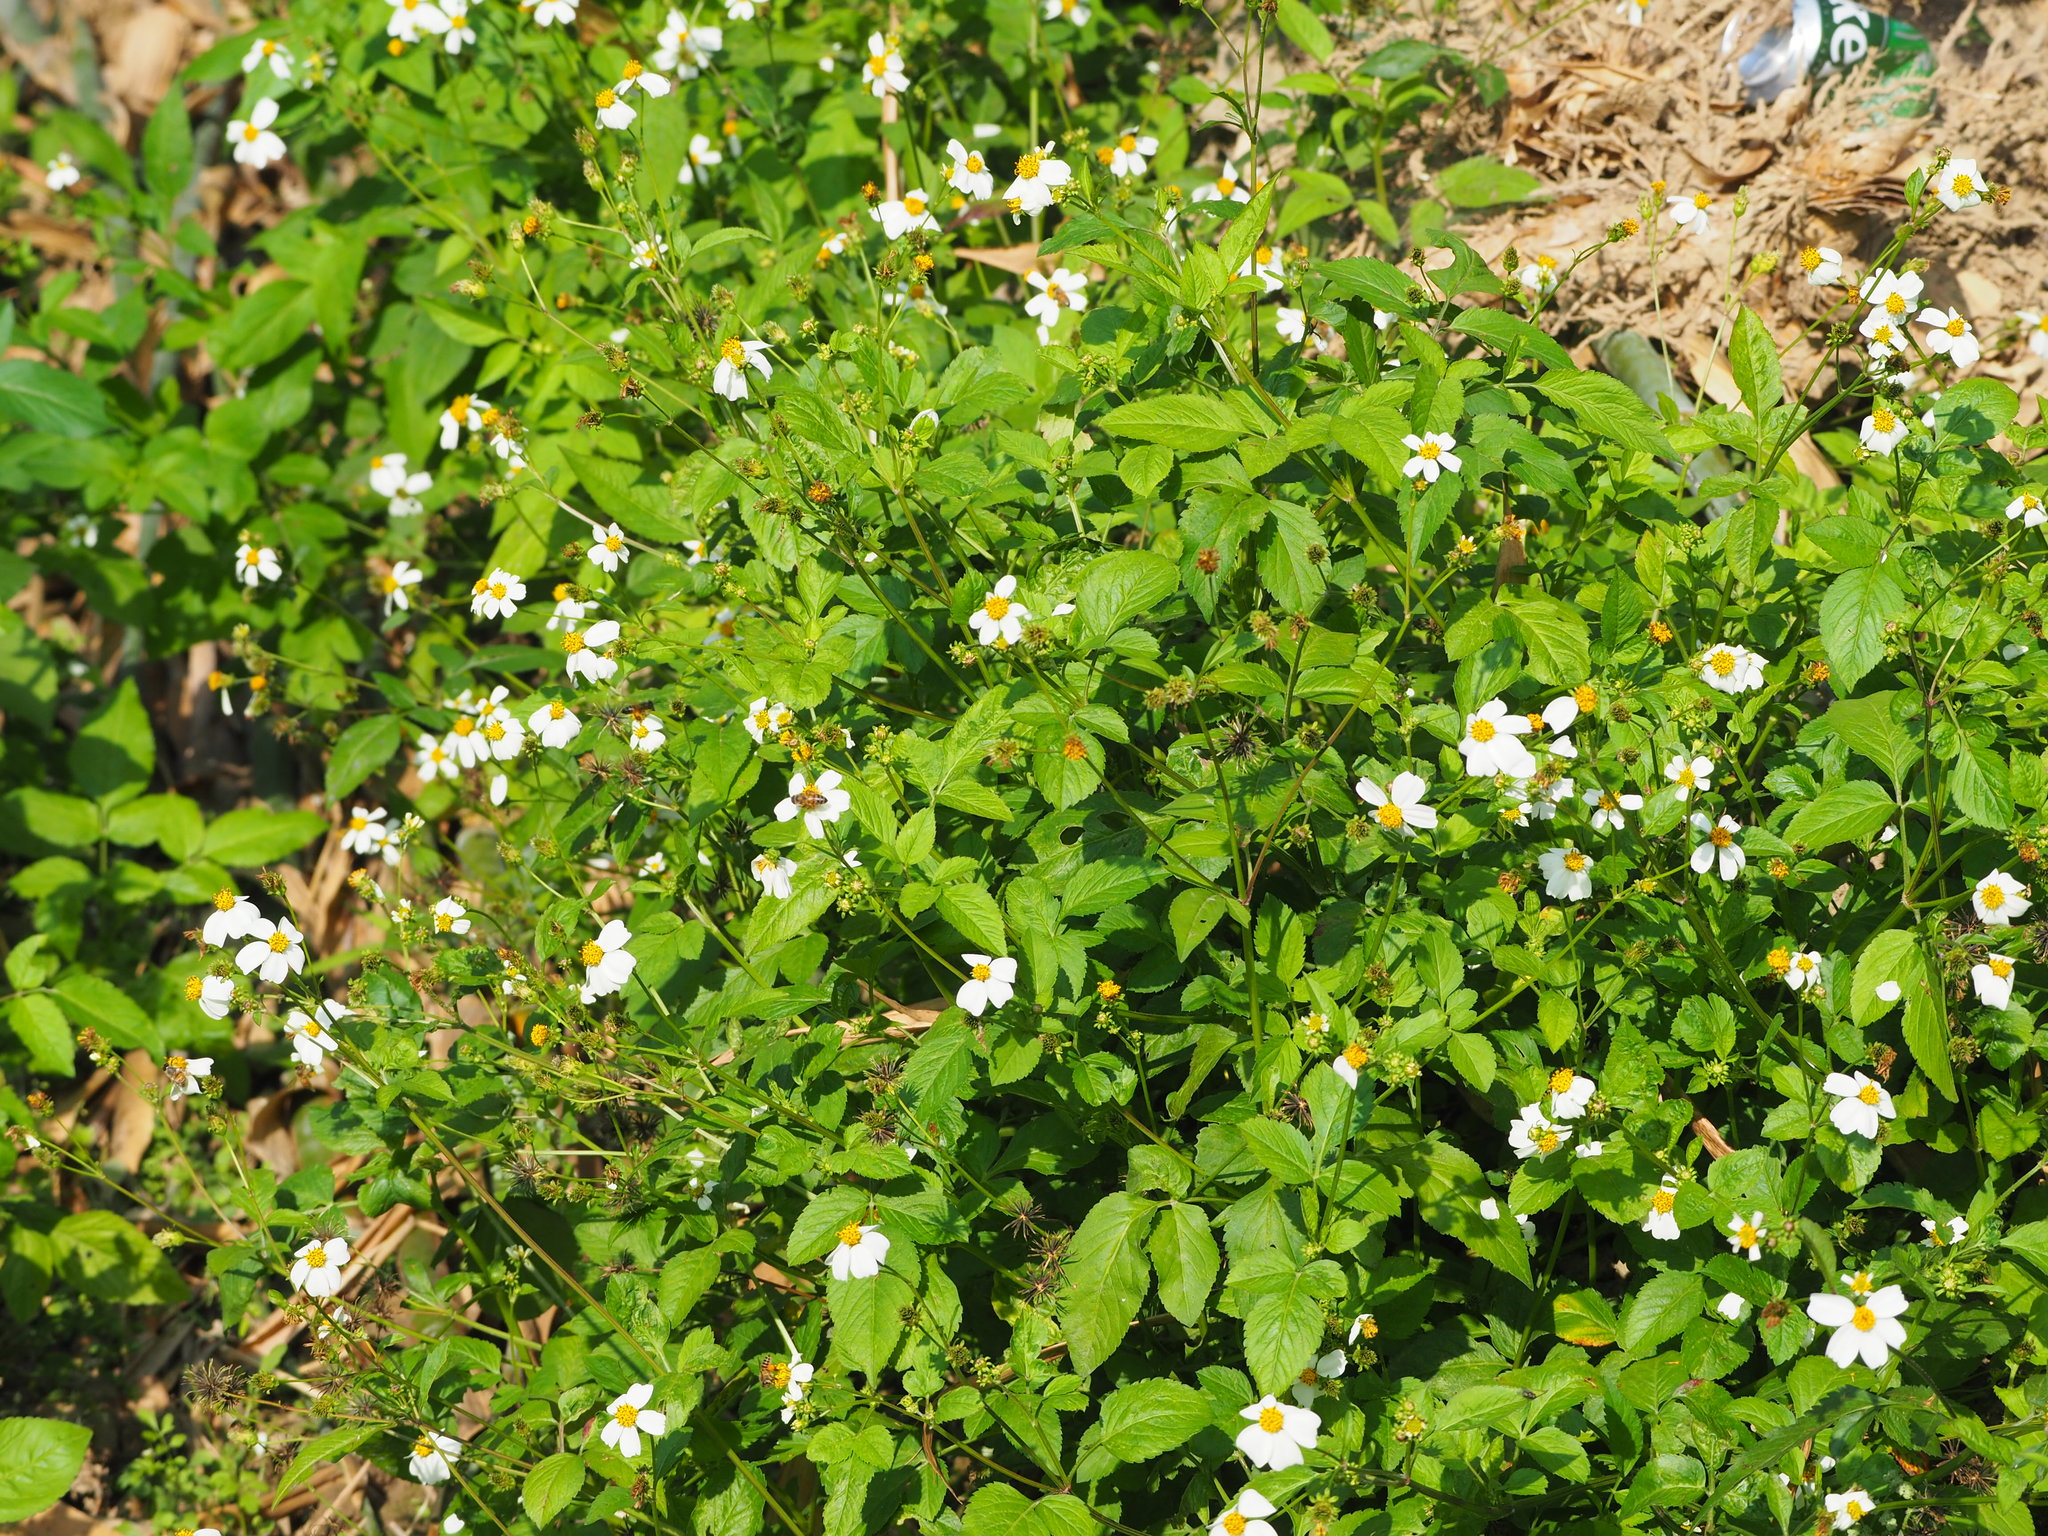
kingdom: Plantae
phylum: Tracheophyta
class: Magnoliopsida
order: Asterales
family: Asteraceae
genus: Bidens
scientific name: Bidens alba
